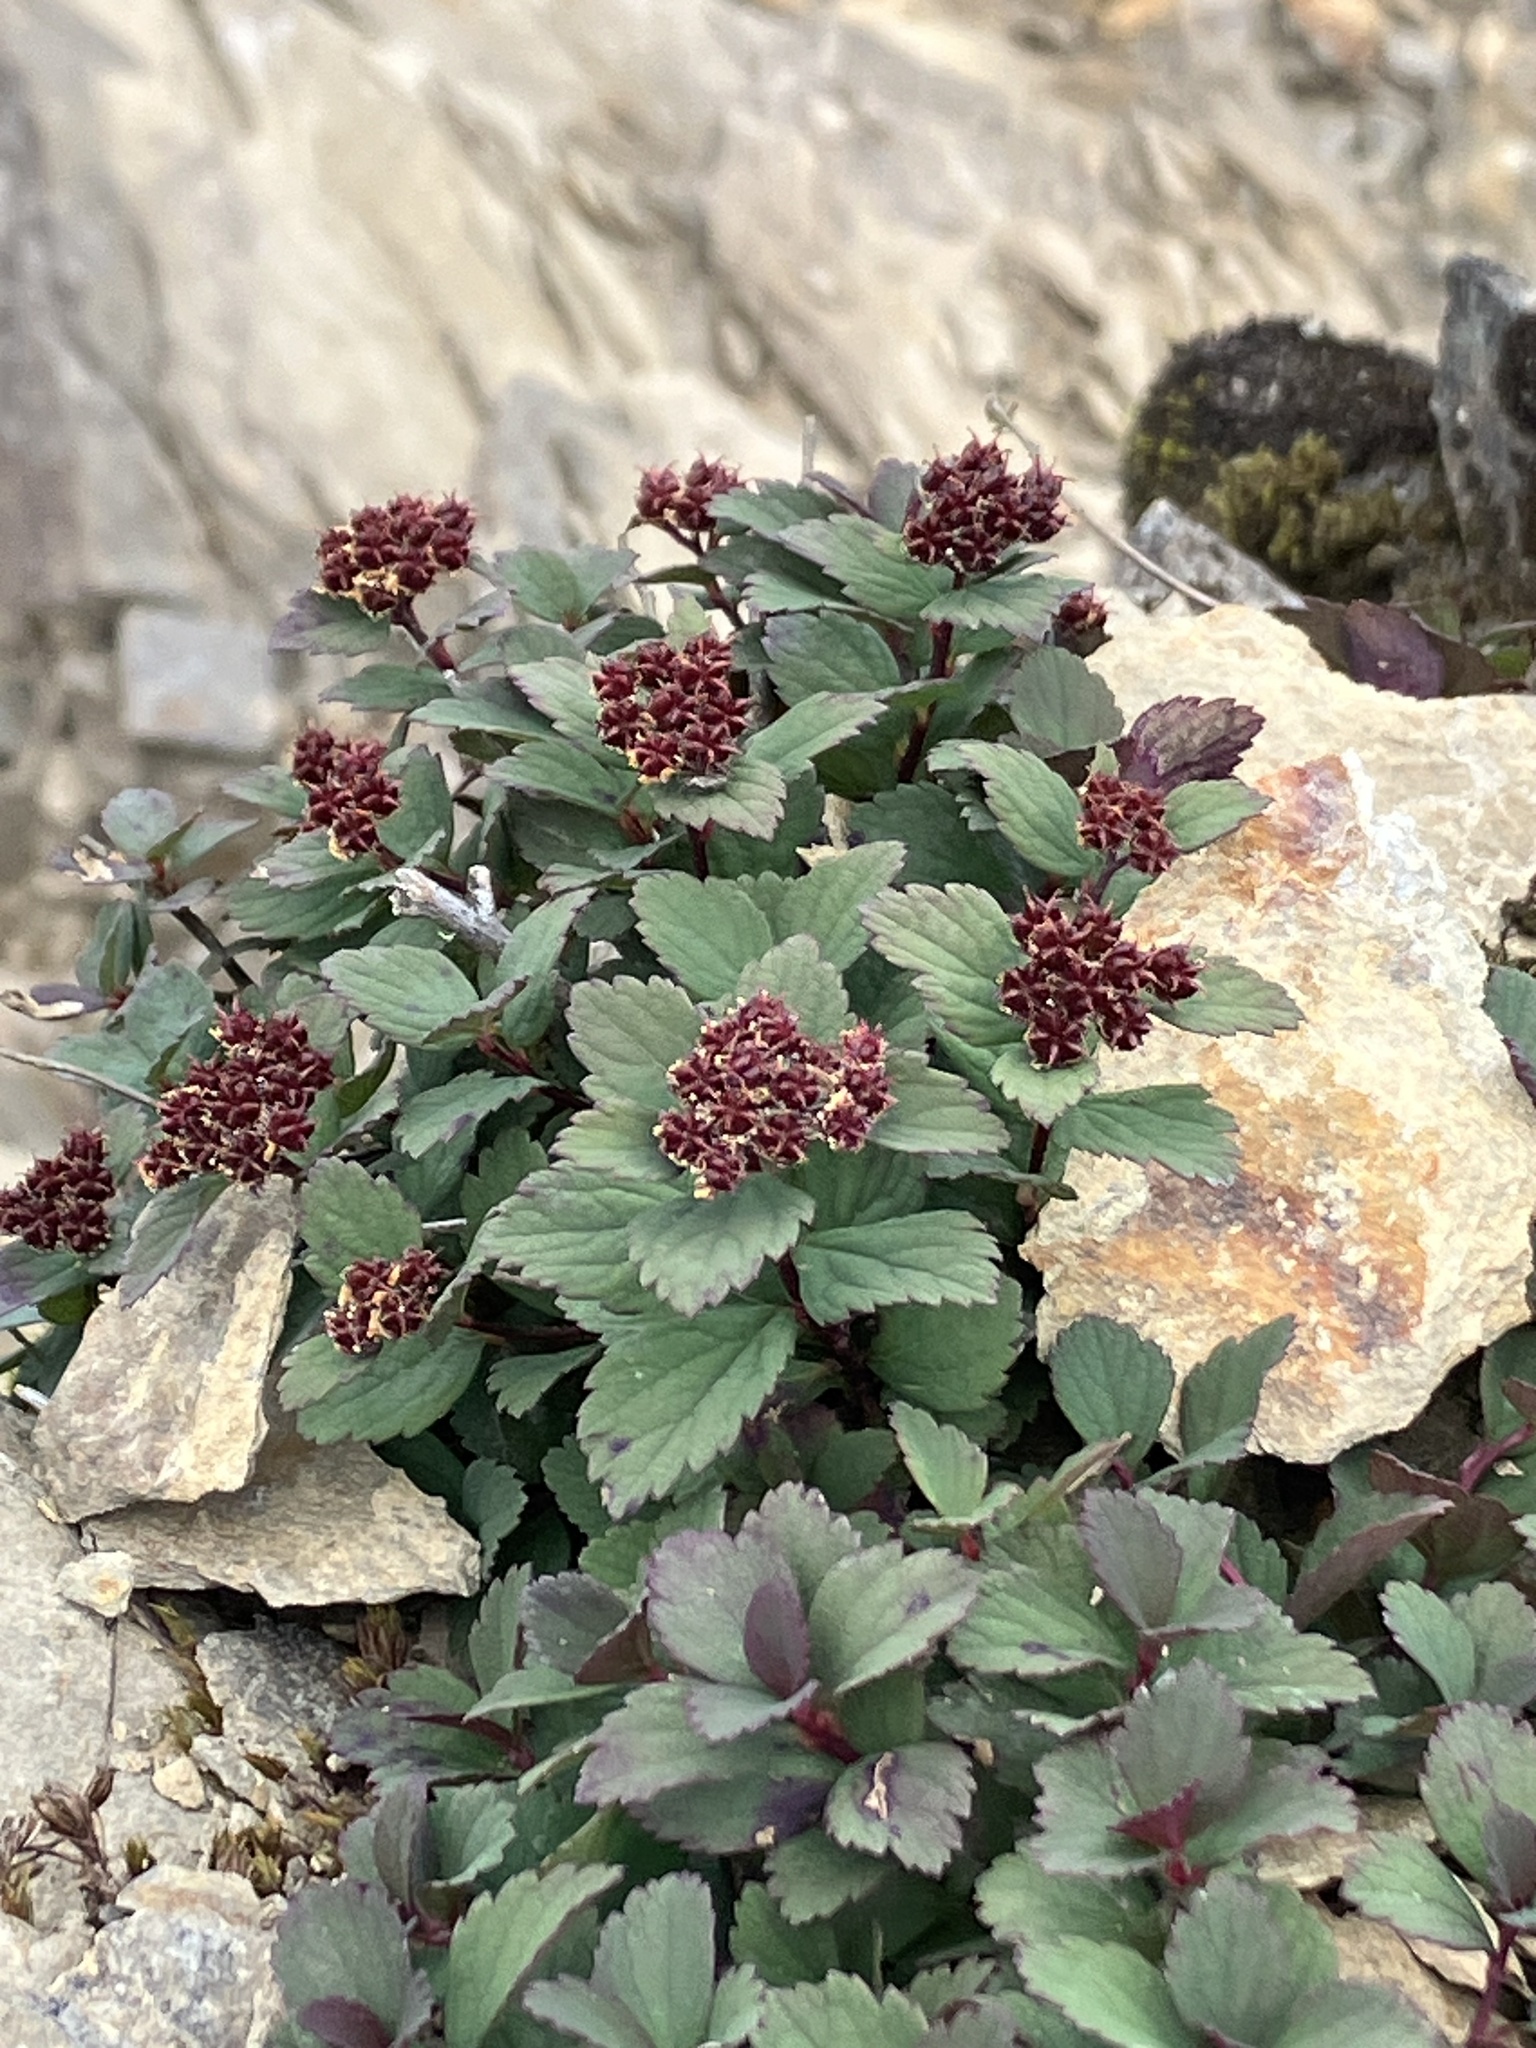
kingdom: Plantae
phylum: Tracheophyta
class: Magnoliopsida
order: Rosales
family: Rosaceae
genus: Spiraea
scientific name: Spiraea morrisonicola
